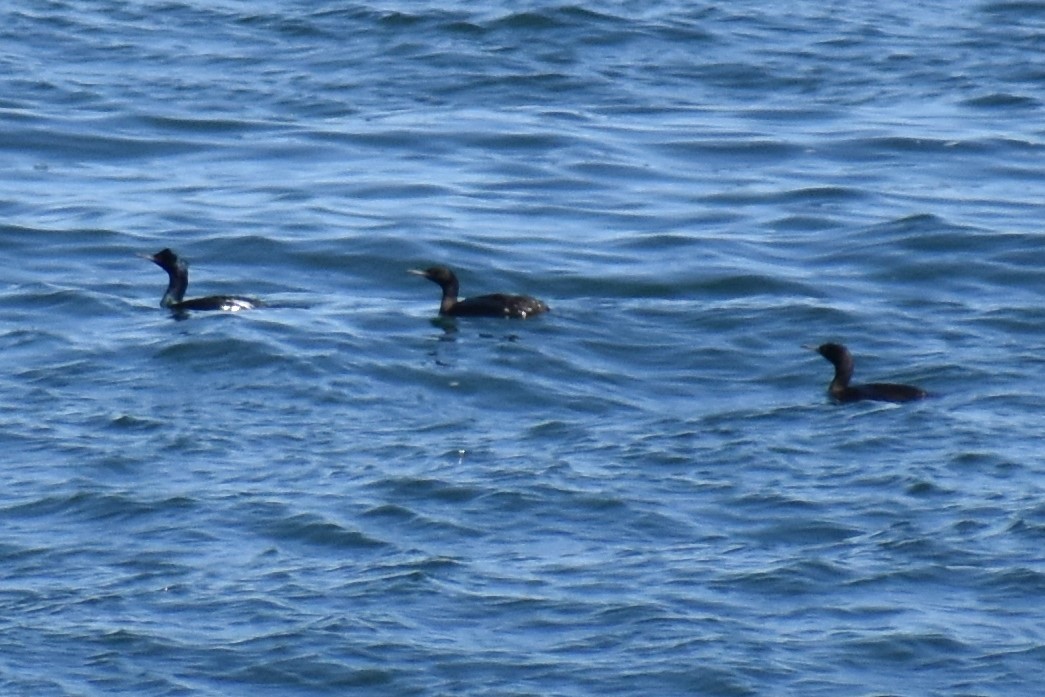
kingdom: Animalia
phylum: Chordata
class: Aves
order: Suliformes
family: Phalacrocoracidae
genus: Phalacrocorax
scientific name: Phalacrocorax pelagicus
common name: Pelagic cormorant
